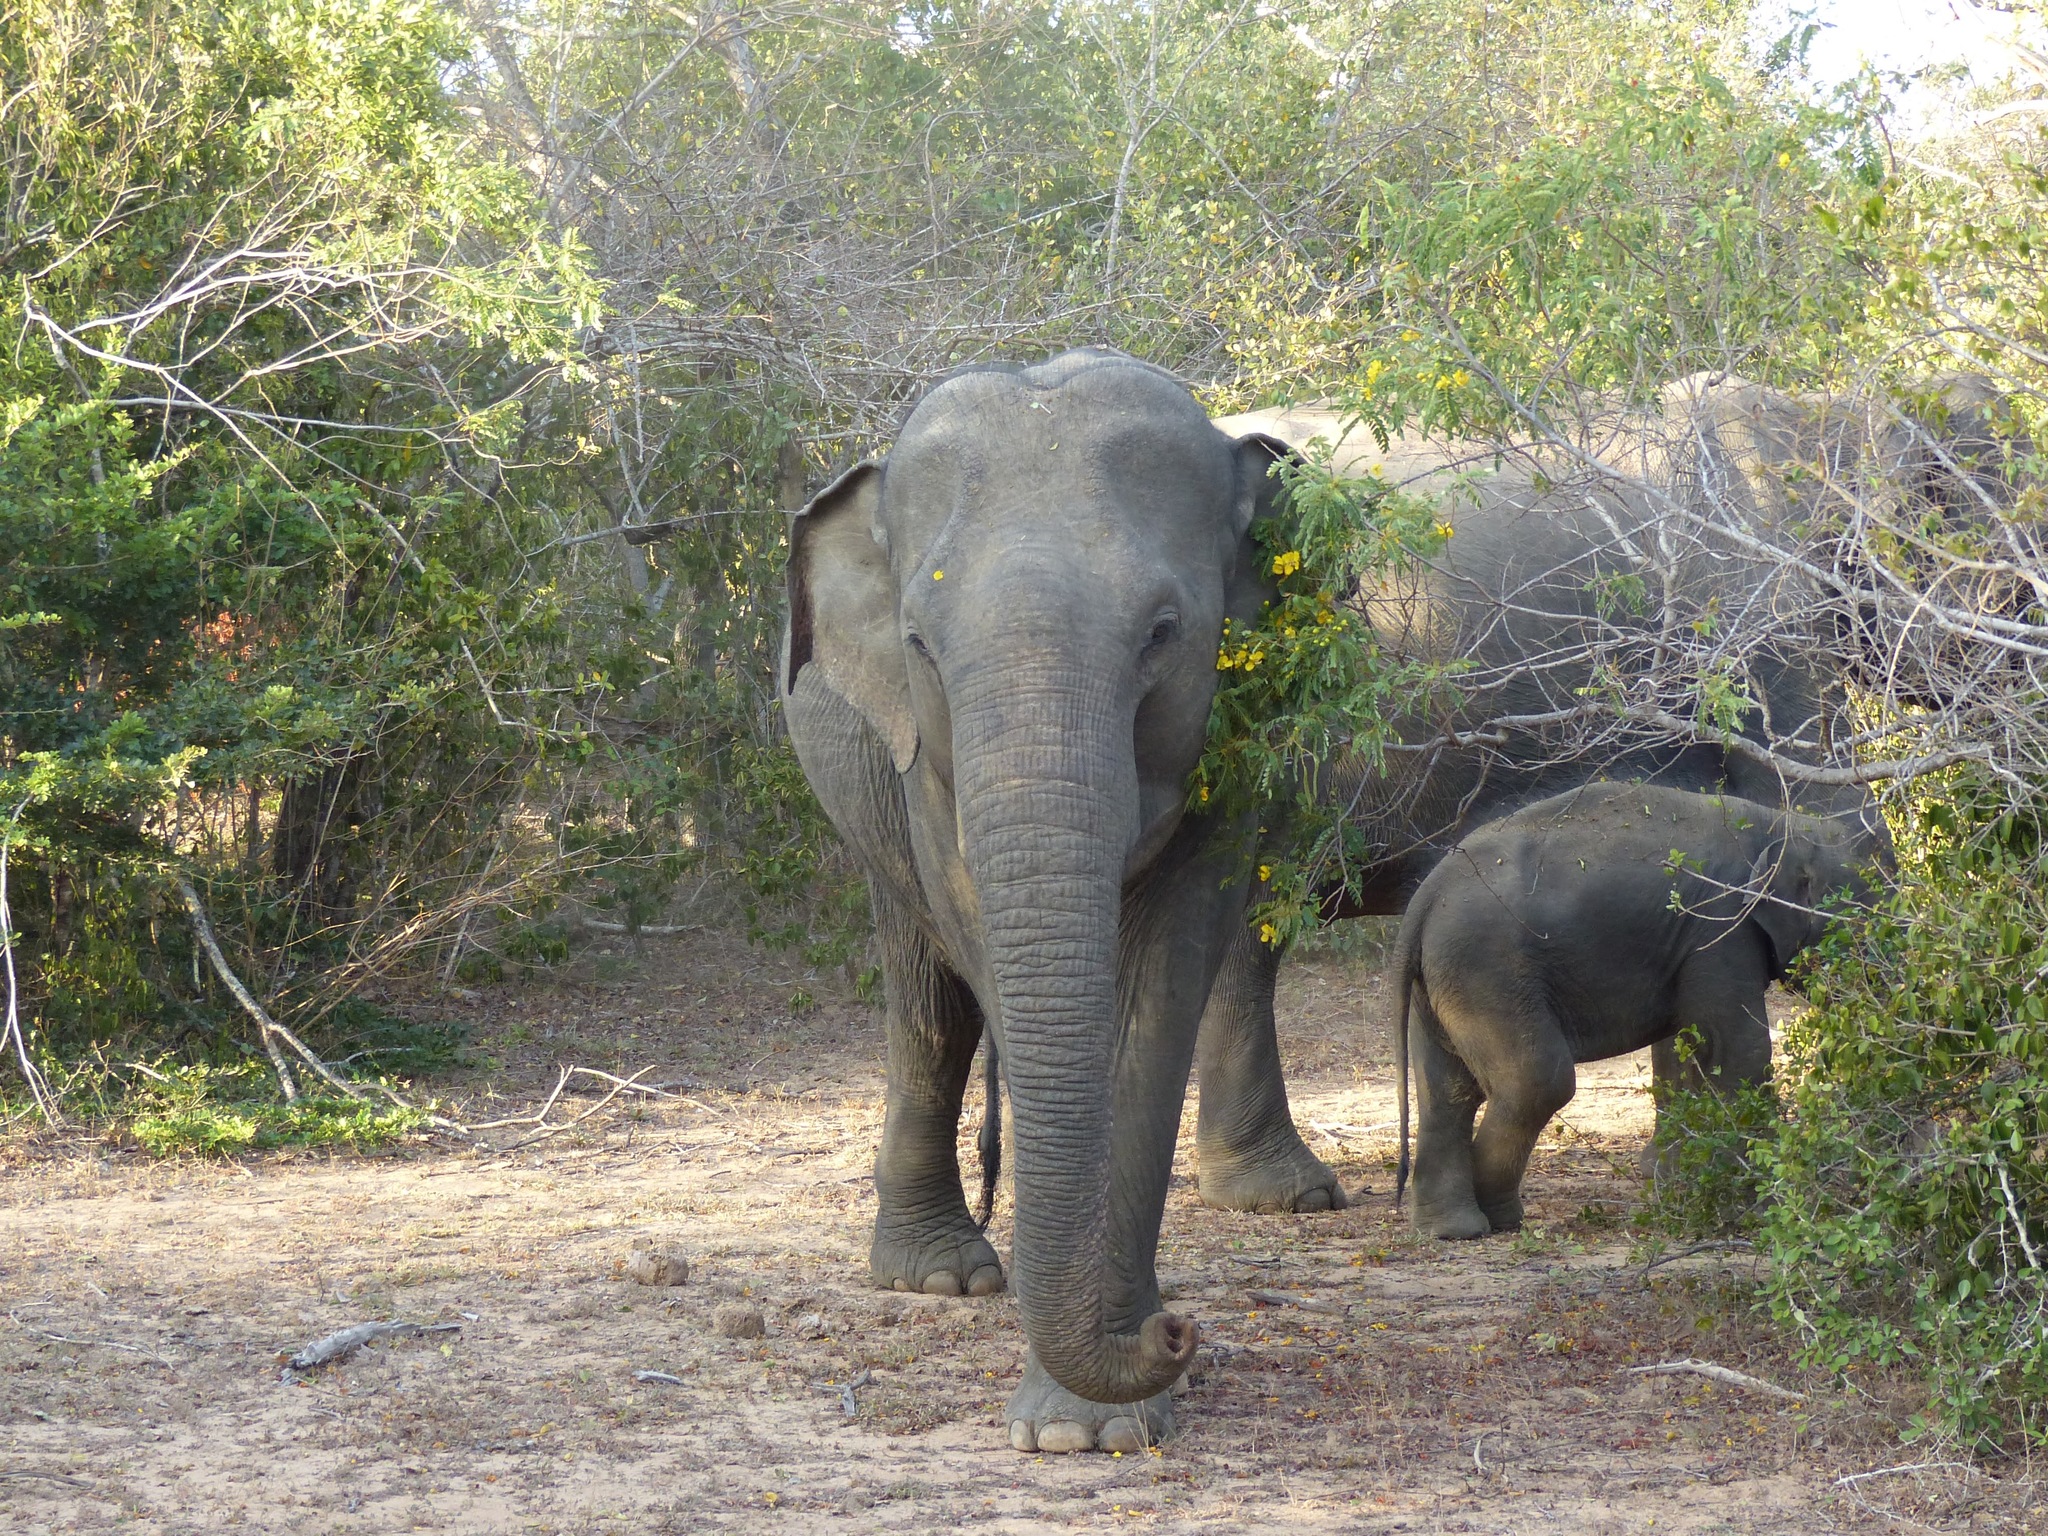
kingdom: Animalia
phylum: Chordata
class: Mammalia
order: Proboscidea
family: Elephantidae
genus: Elephas
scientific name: Elephas maximus
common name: Asian elephant
